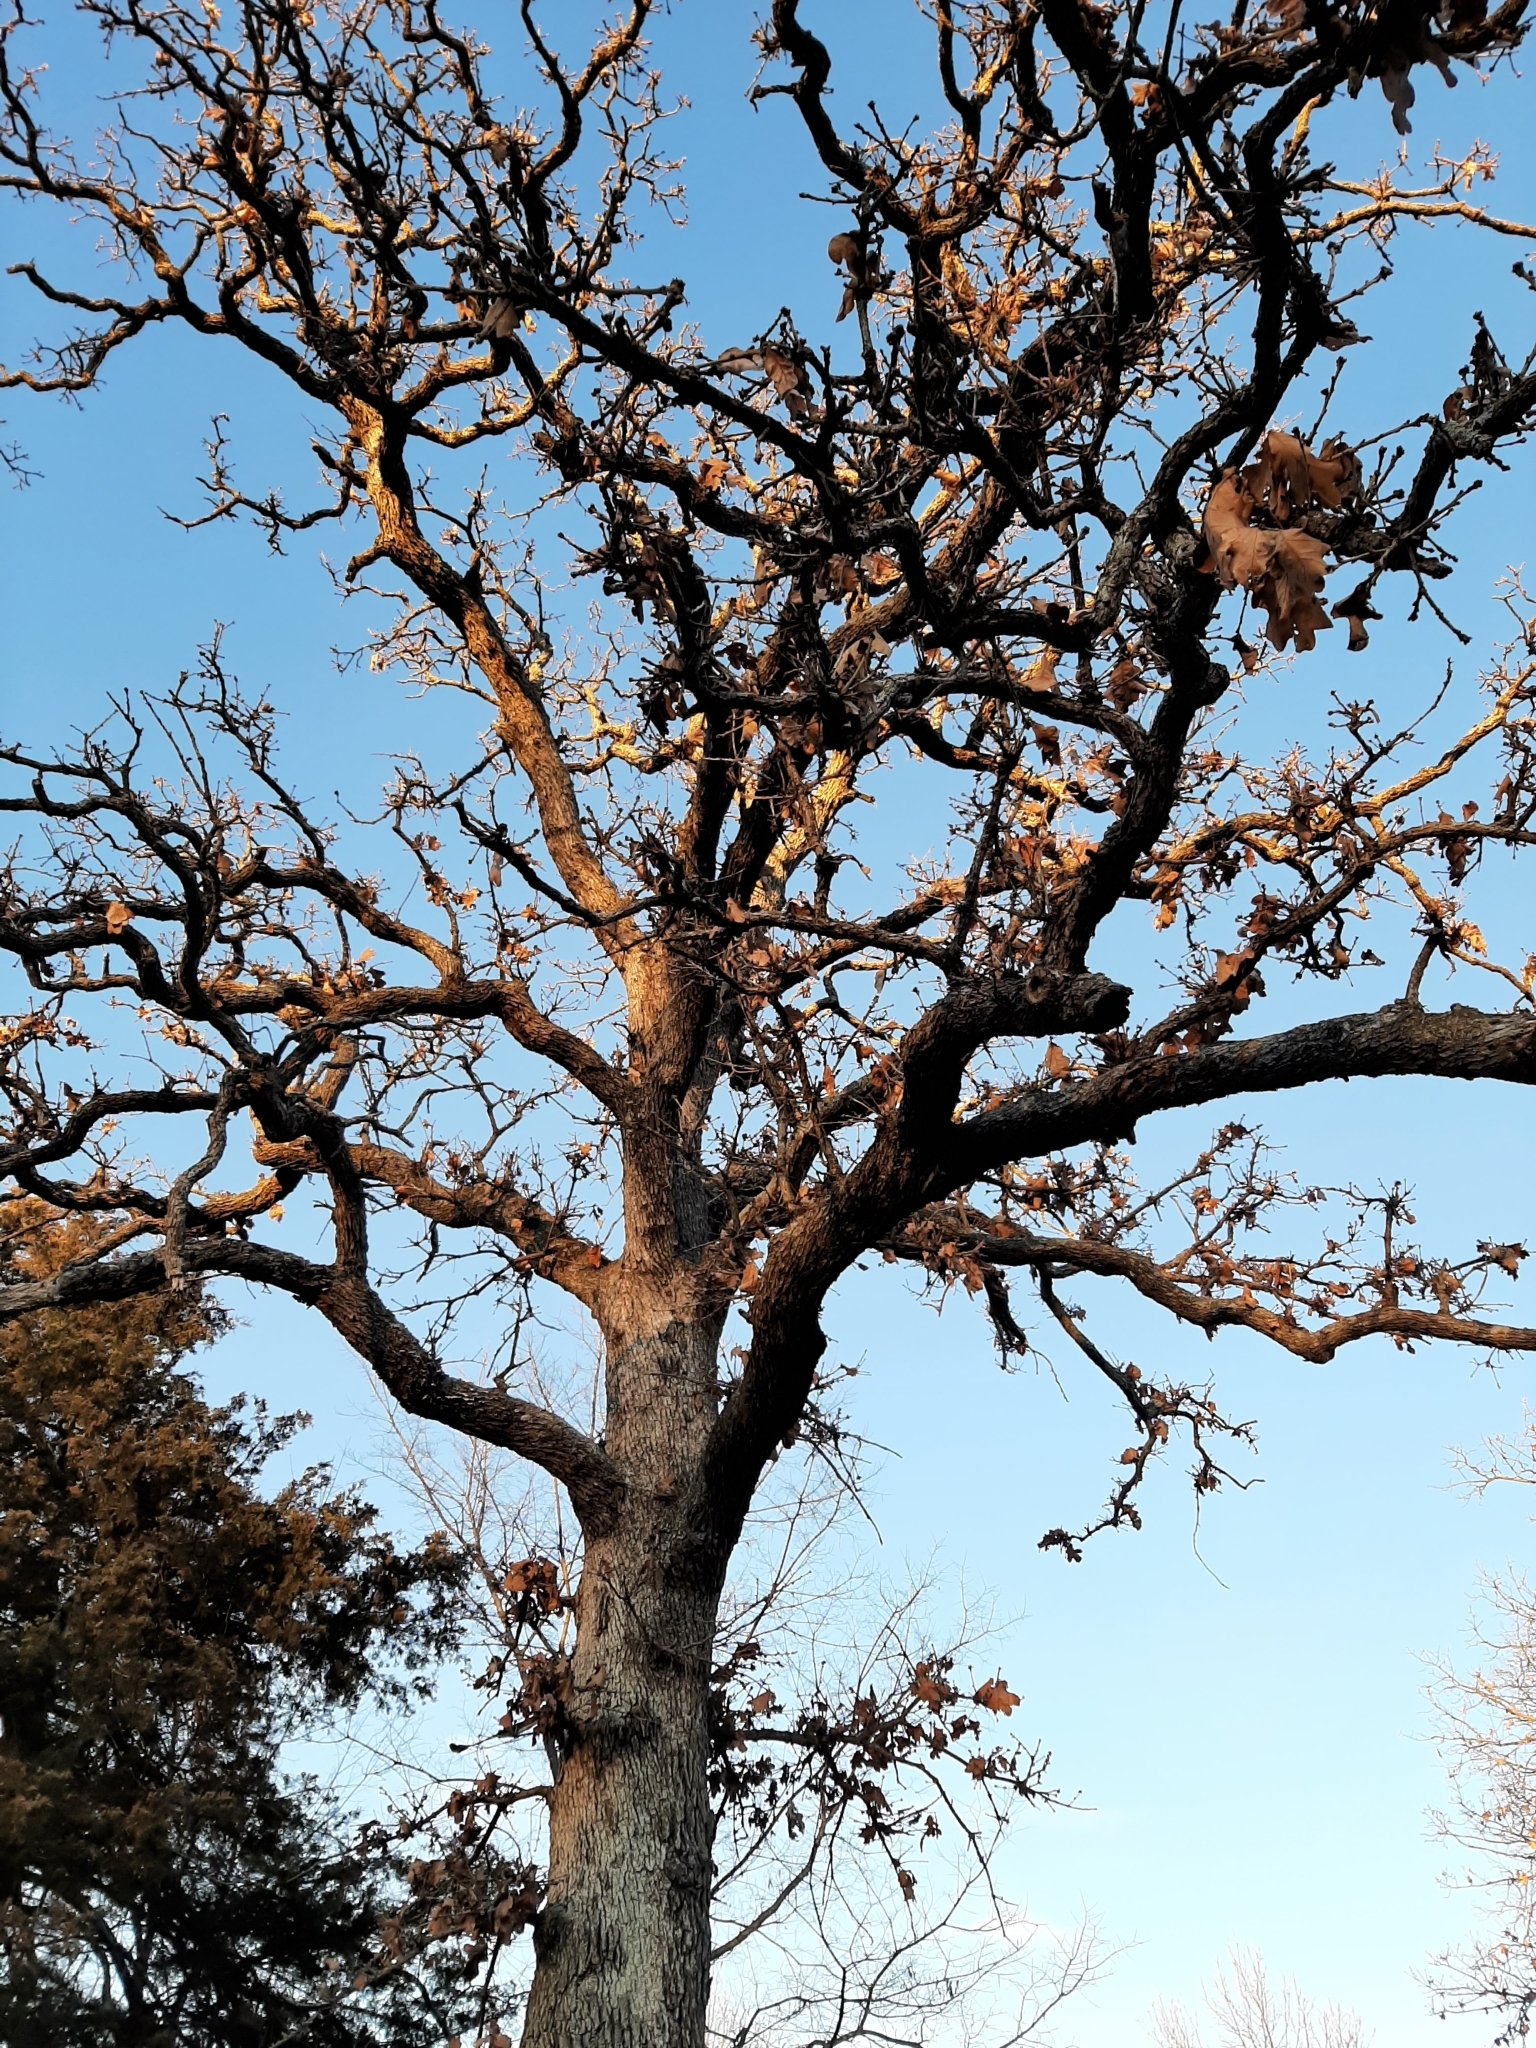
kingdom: Plantae
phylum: Tracheophyta
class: Magnoliopsida
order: Fagales
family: Fagaceae
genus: Quercus
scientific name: Quercus stellata
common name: Post oak
